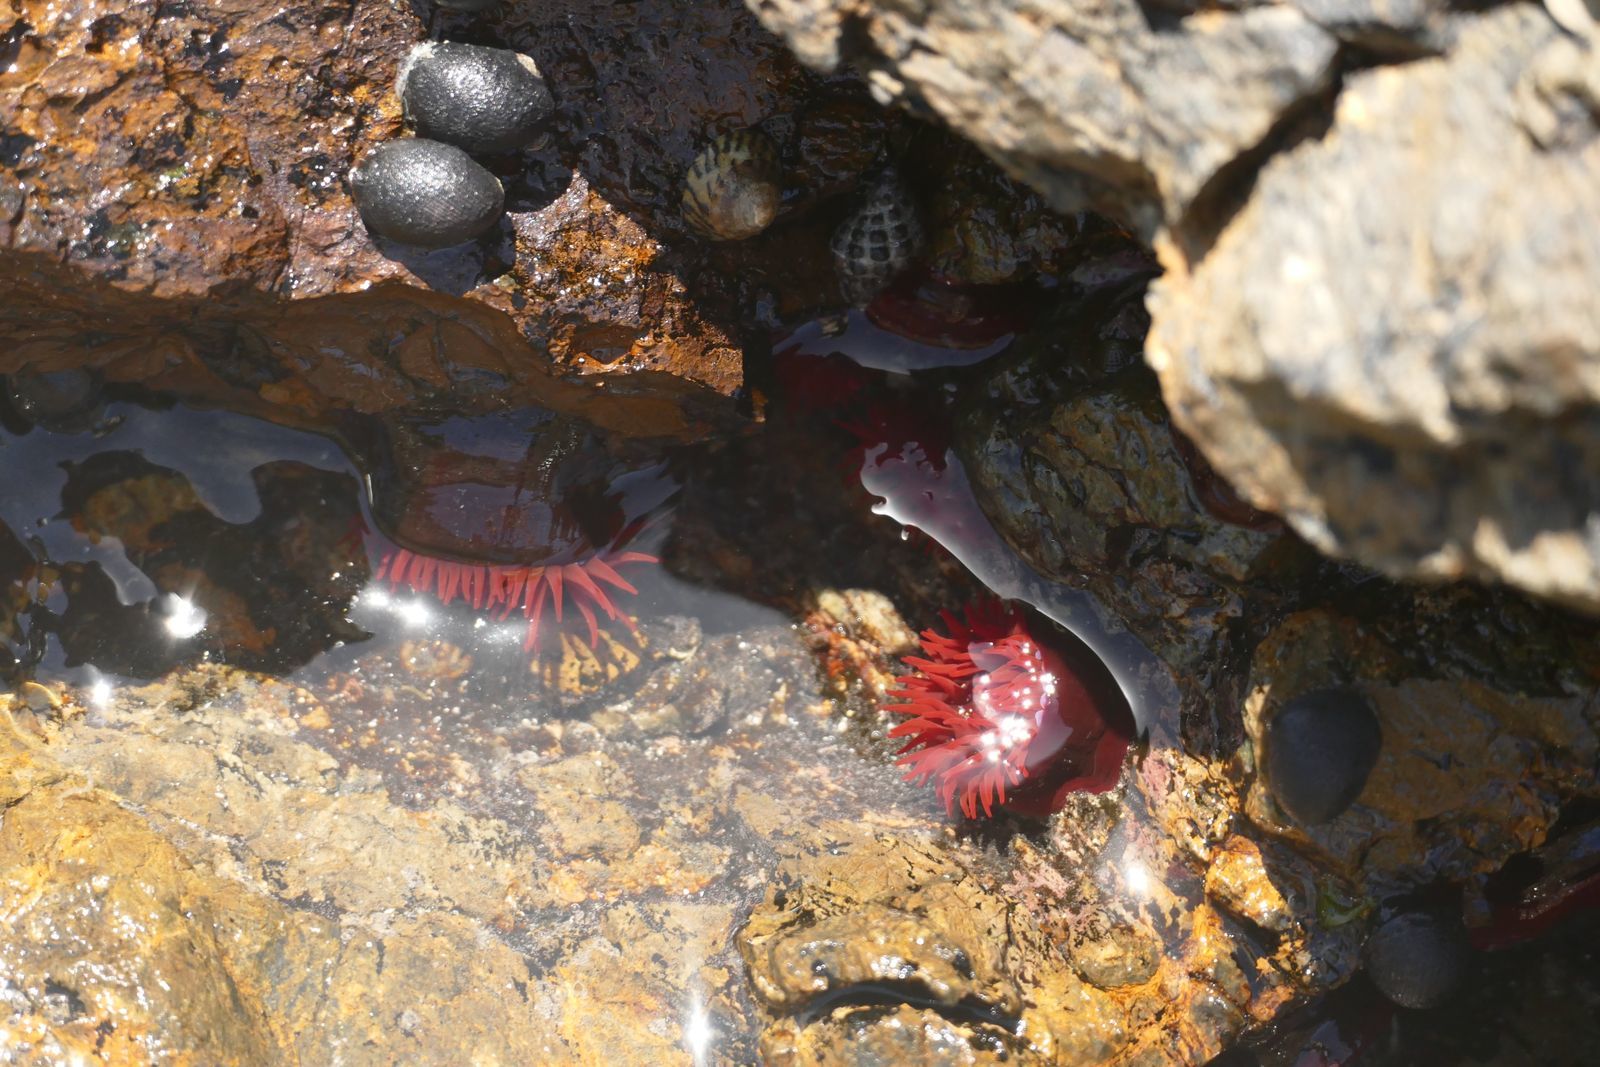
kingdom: Animalia
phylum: Cnidaria
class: Anthozoa
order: Actiniaria
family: Actiniidae
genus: Actinia
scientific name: Actinia tenebrosa
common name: Waratah anemone
